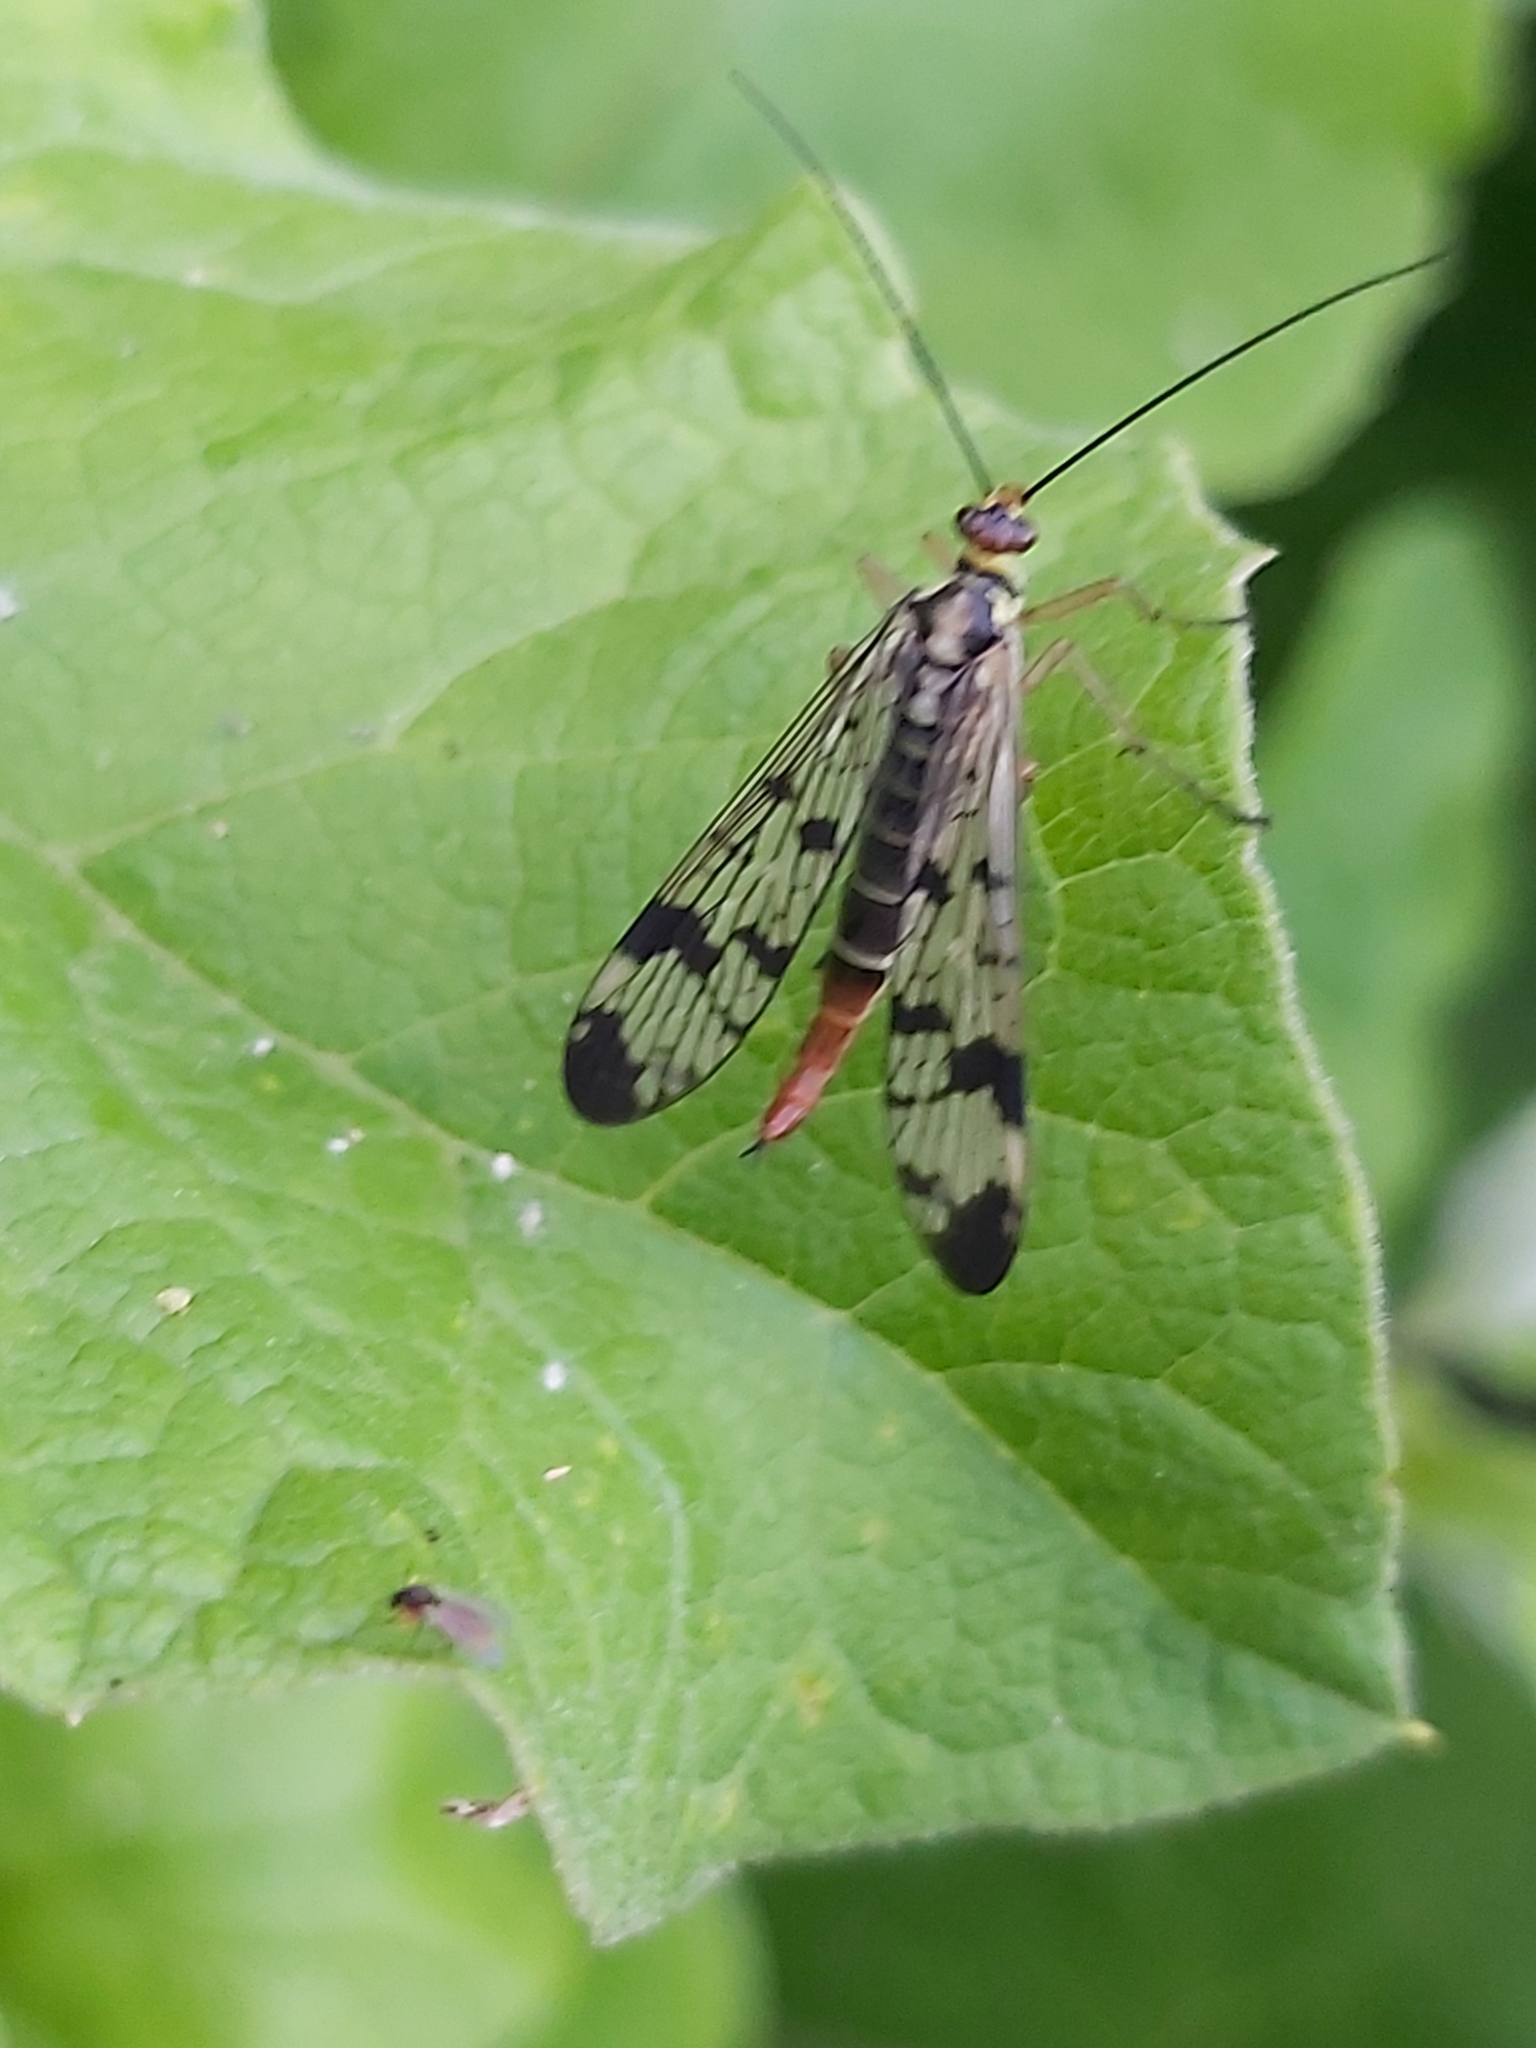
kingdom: Animalia
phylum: Arthropoda
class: Insecta
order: Mecoptera
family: Panorpidae
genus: Panorpa
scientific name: Panorpa communis
